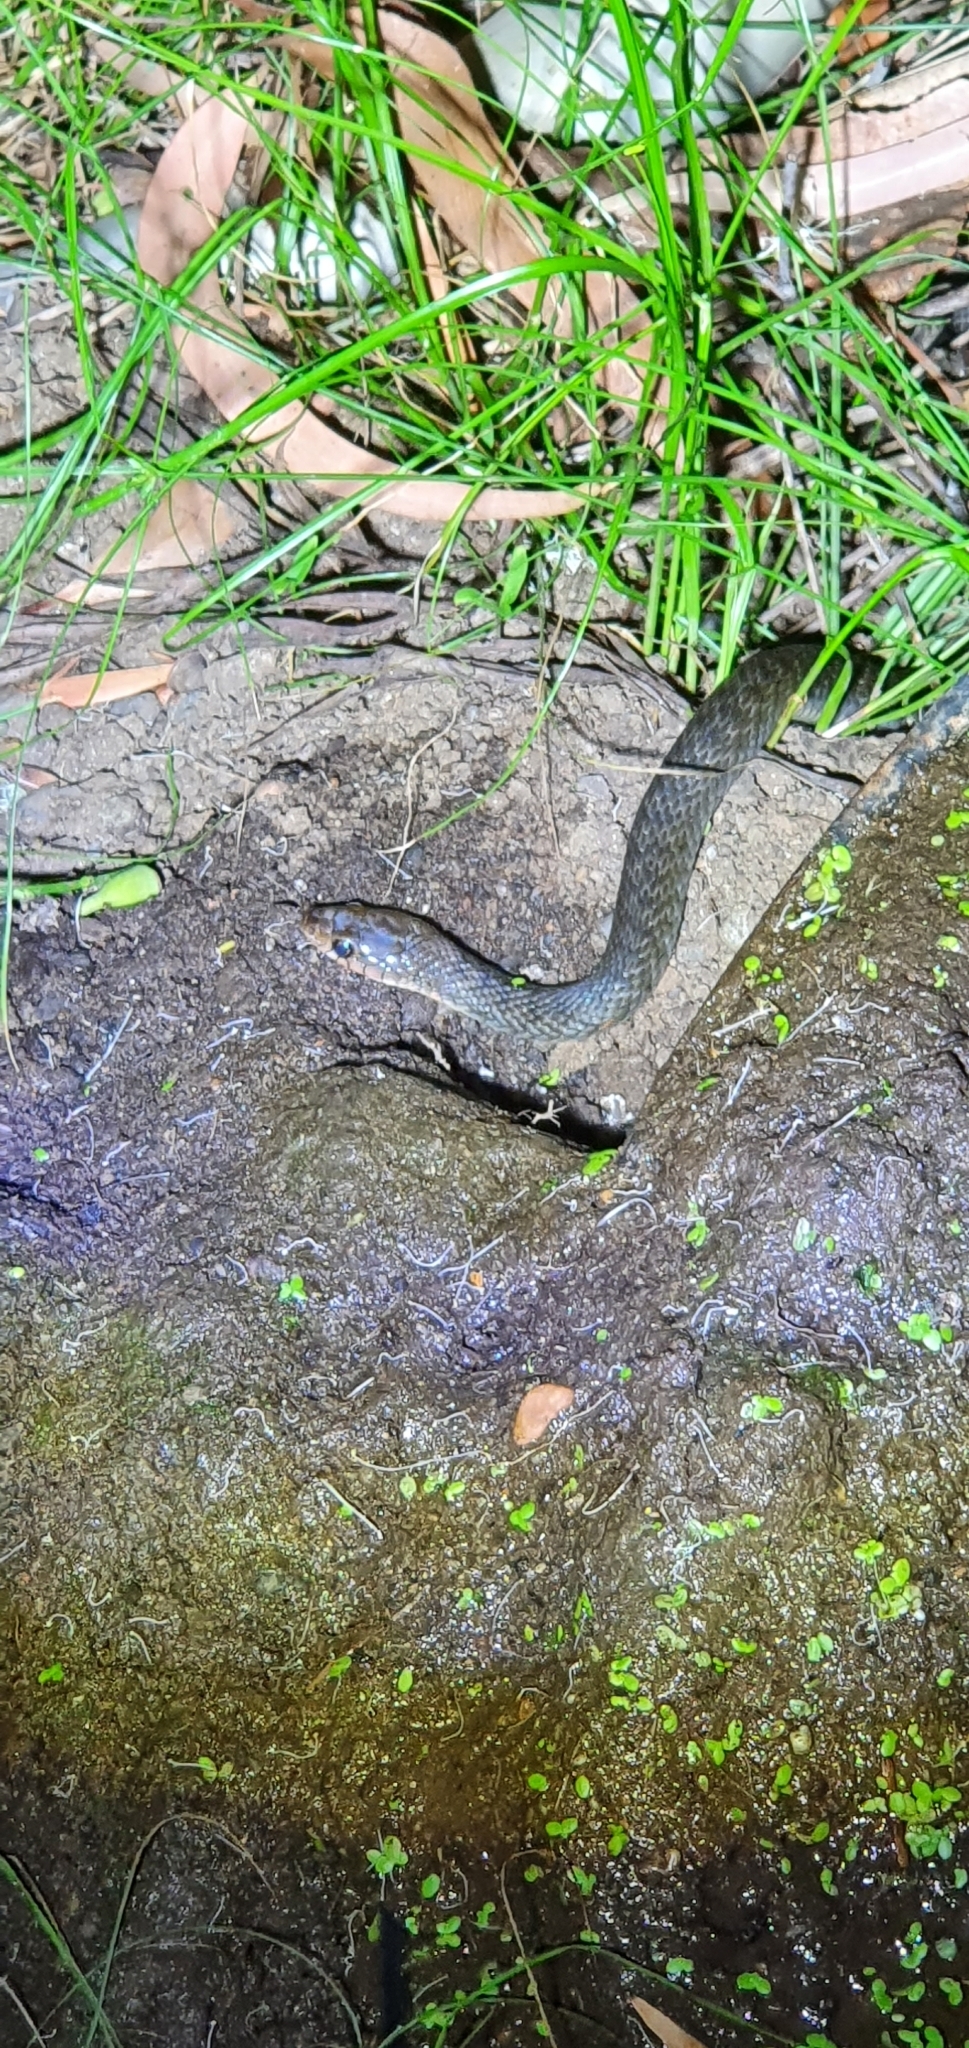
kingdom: Animalia
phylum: Chordata
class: Squamata
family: Colubridae
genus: Tropidonophis
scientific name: Tropidonophis mairii
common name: Common keelback
